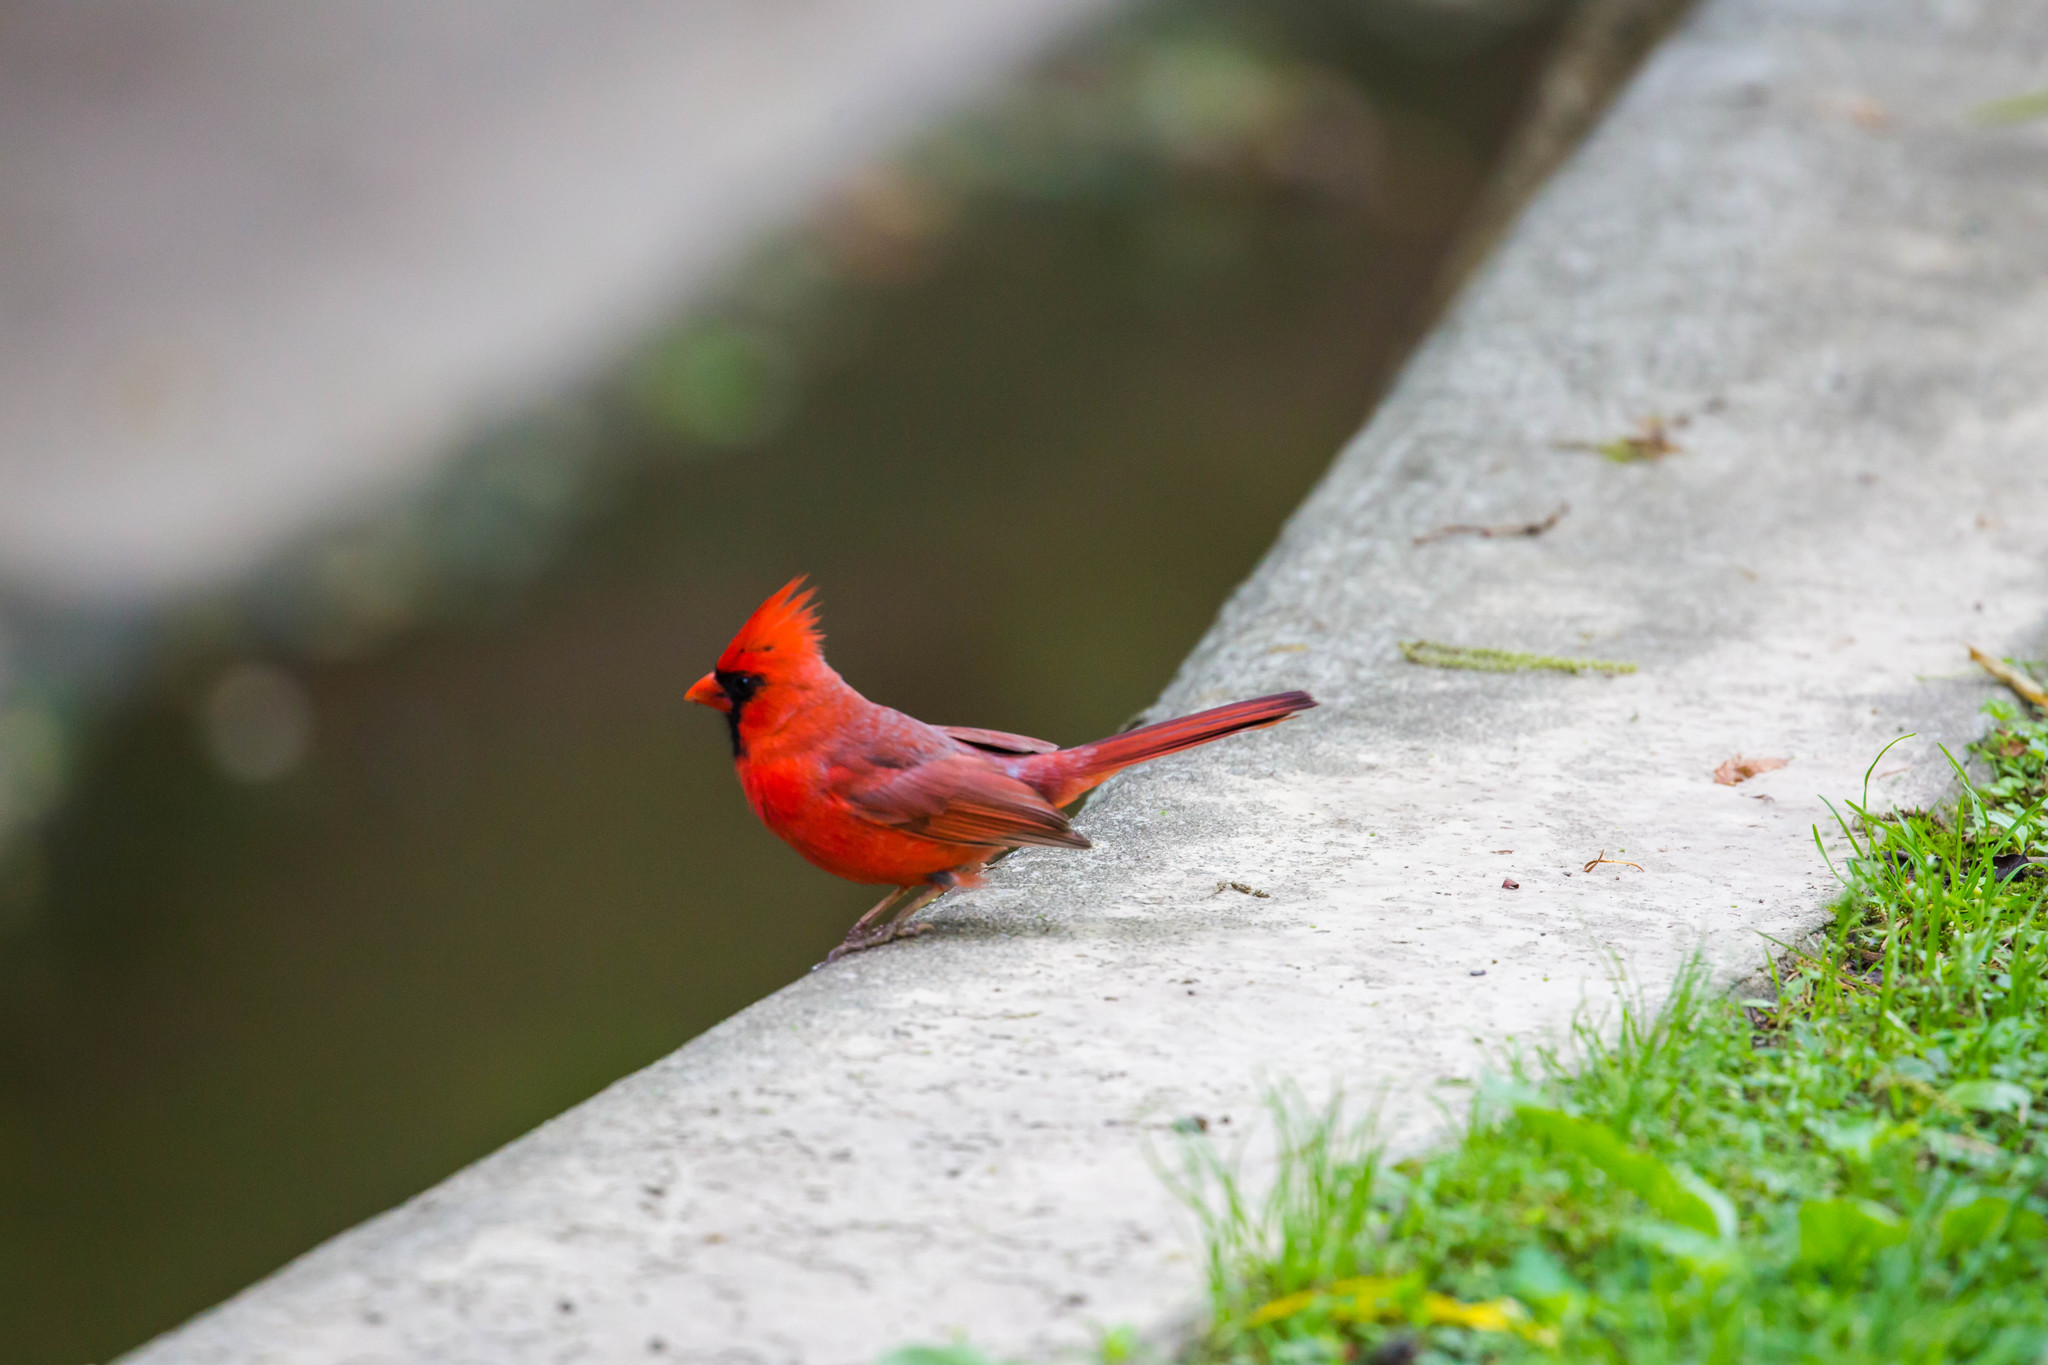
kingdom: Animalia
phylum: Chordata
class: Aves
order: Passeriformes
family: Cardinalidae
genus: Cardinalis
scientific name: Cardinalis cardinalis
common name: Northern cardinal
